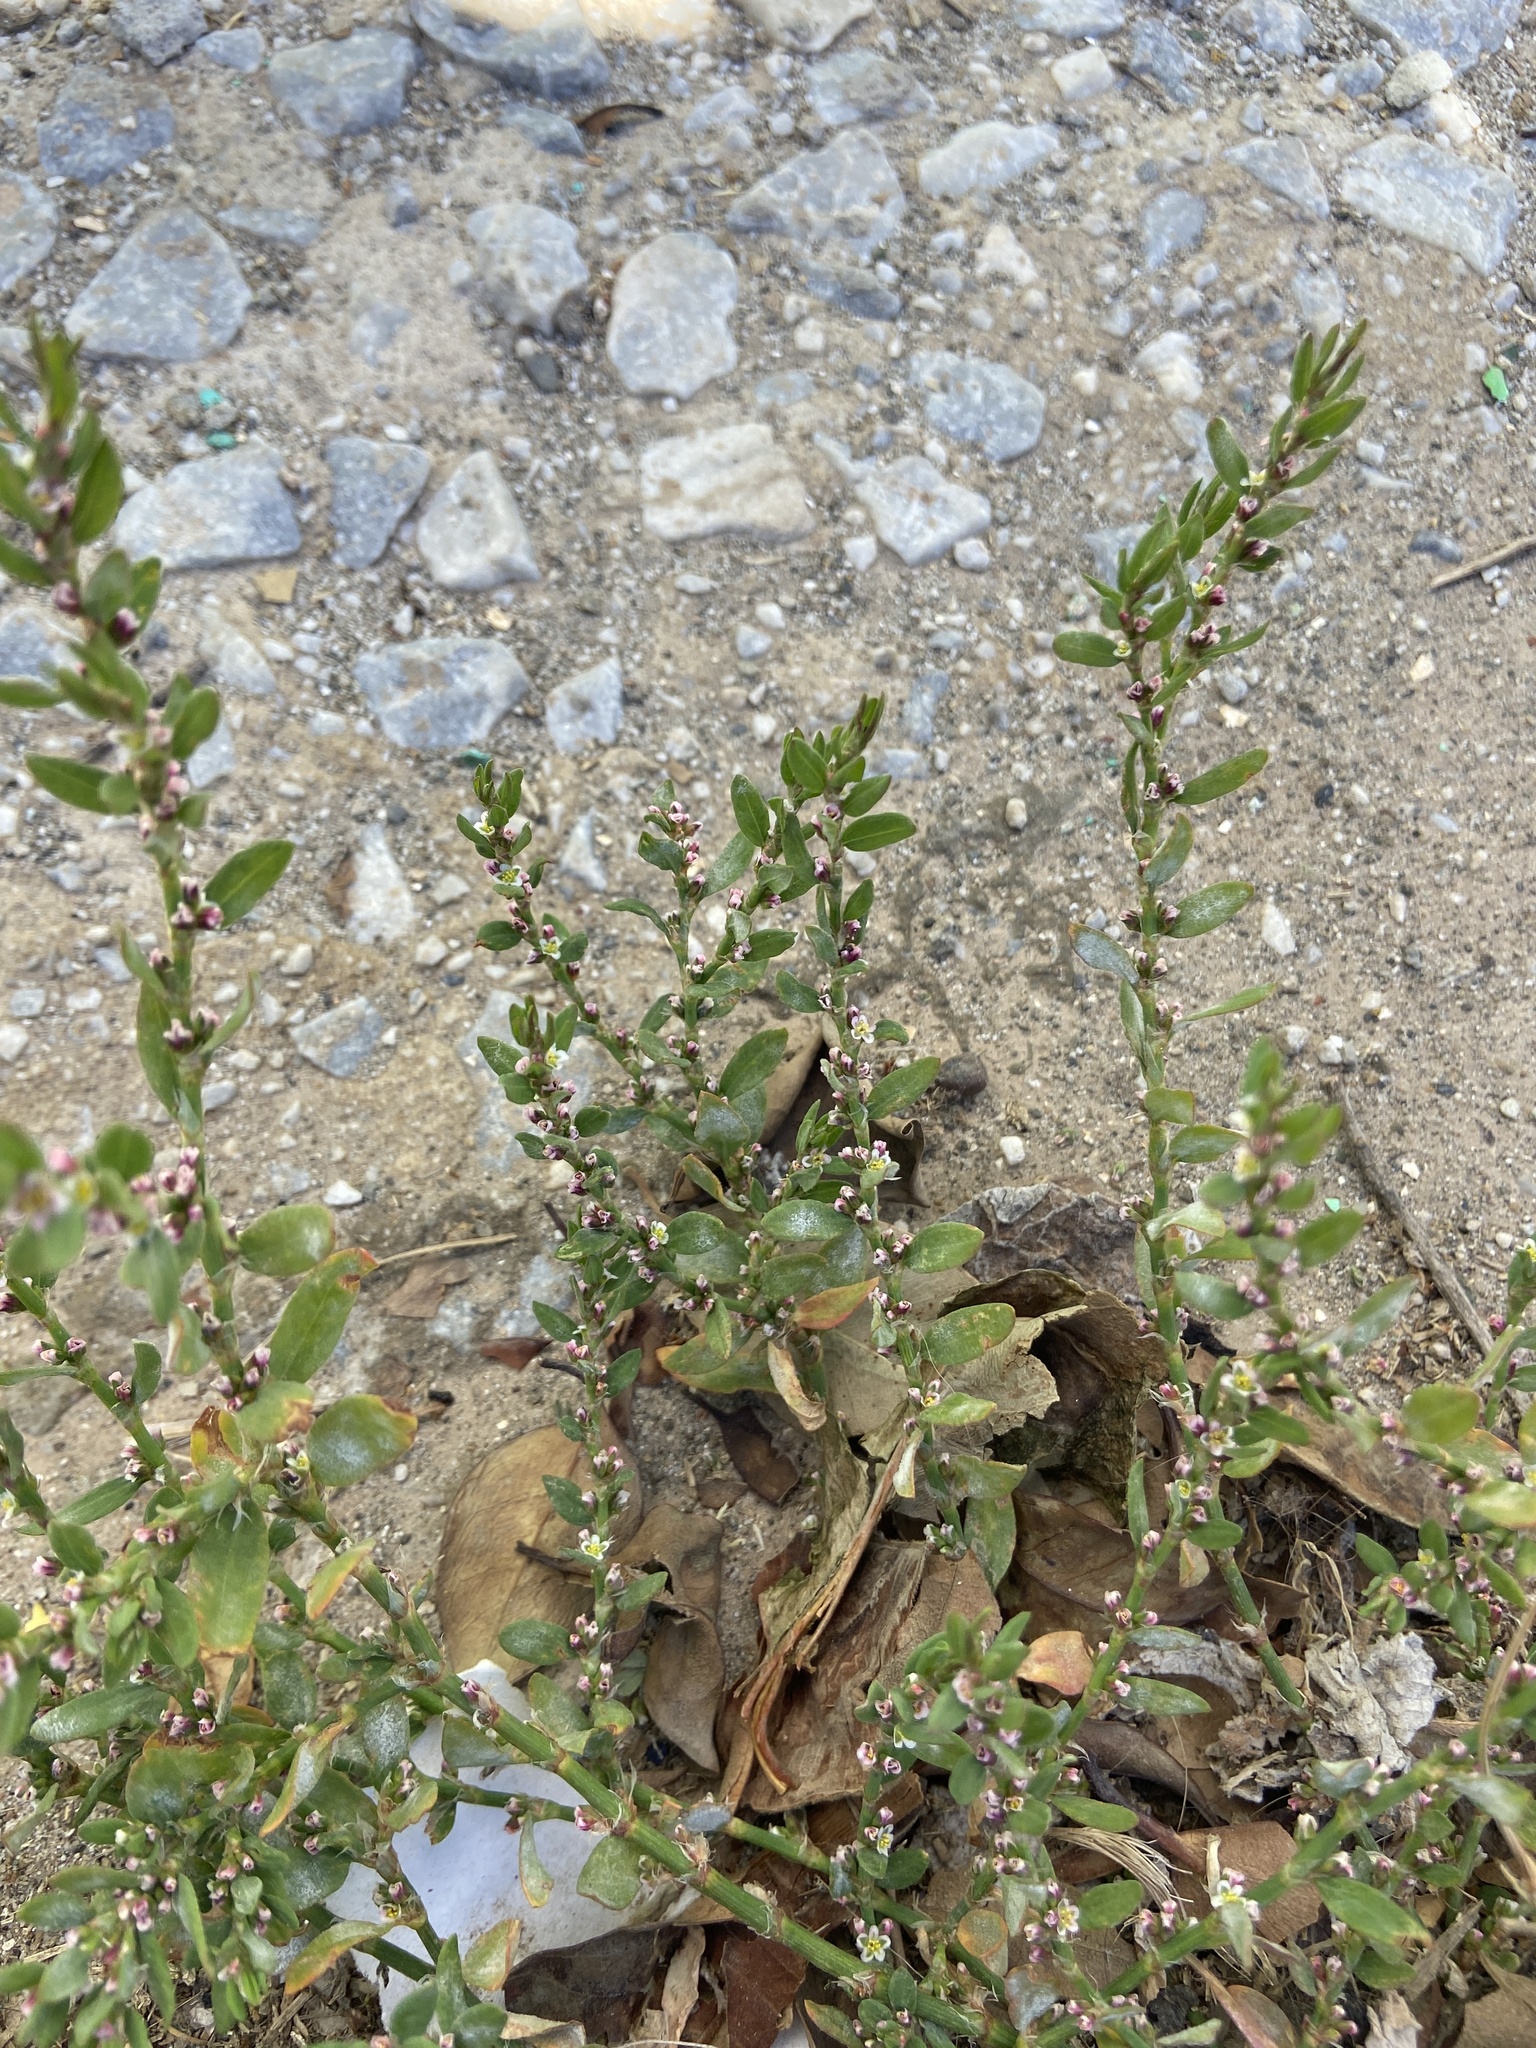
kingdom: Plantae
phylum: Tracheophyta
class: Magnoliopsida
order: Caryophyllales
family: Polygonaceae
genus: Polygonum
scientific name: Polygonum aviculare
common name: Prostrate knotweed
